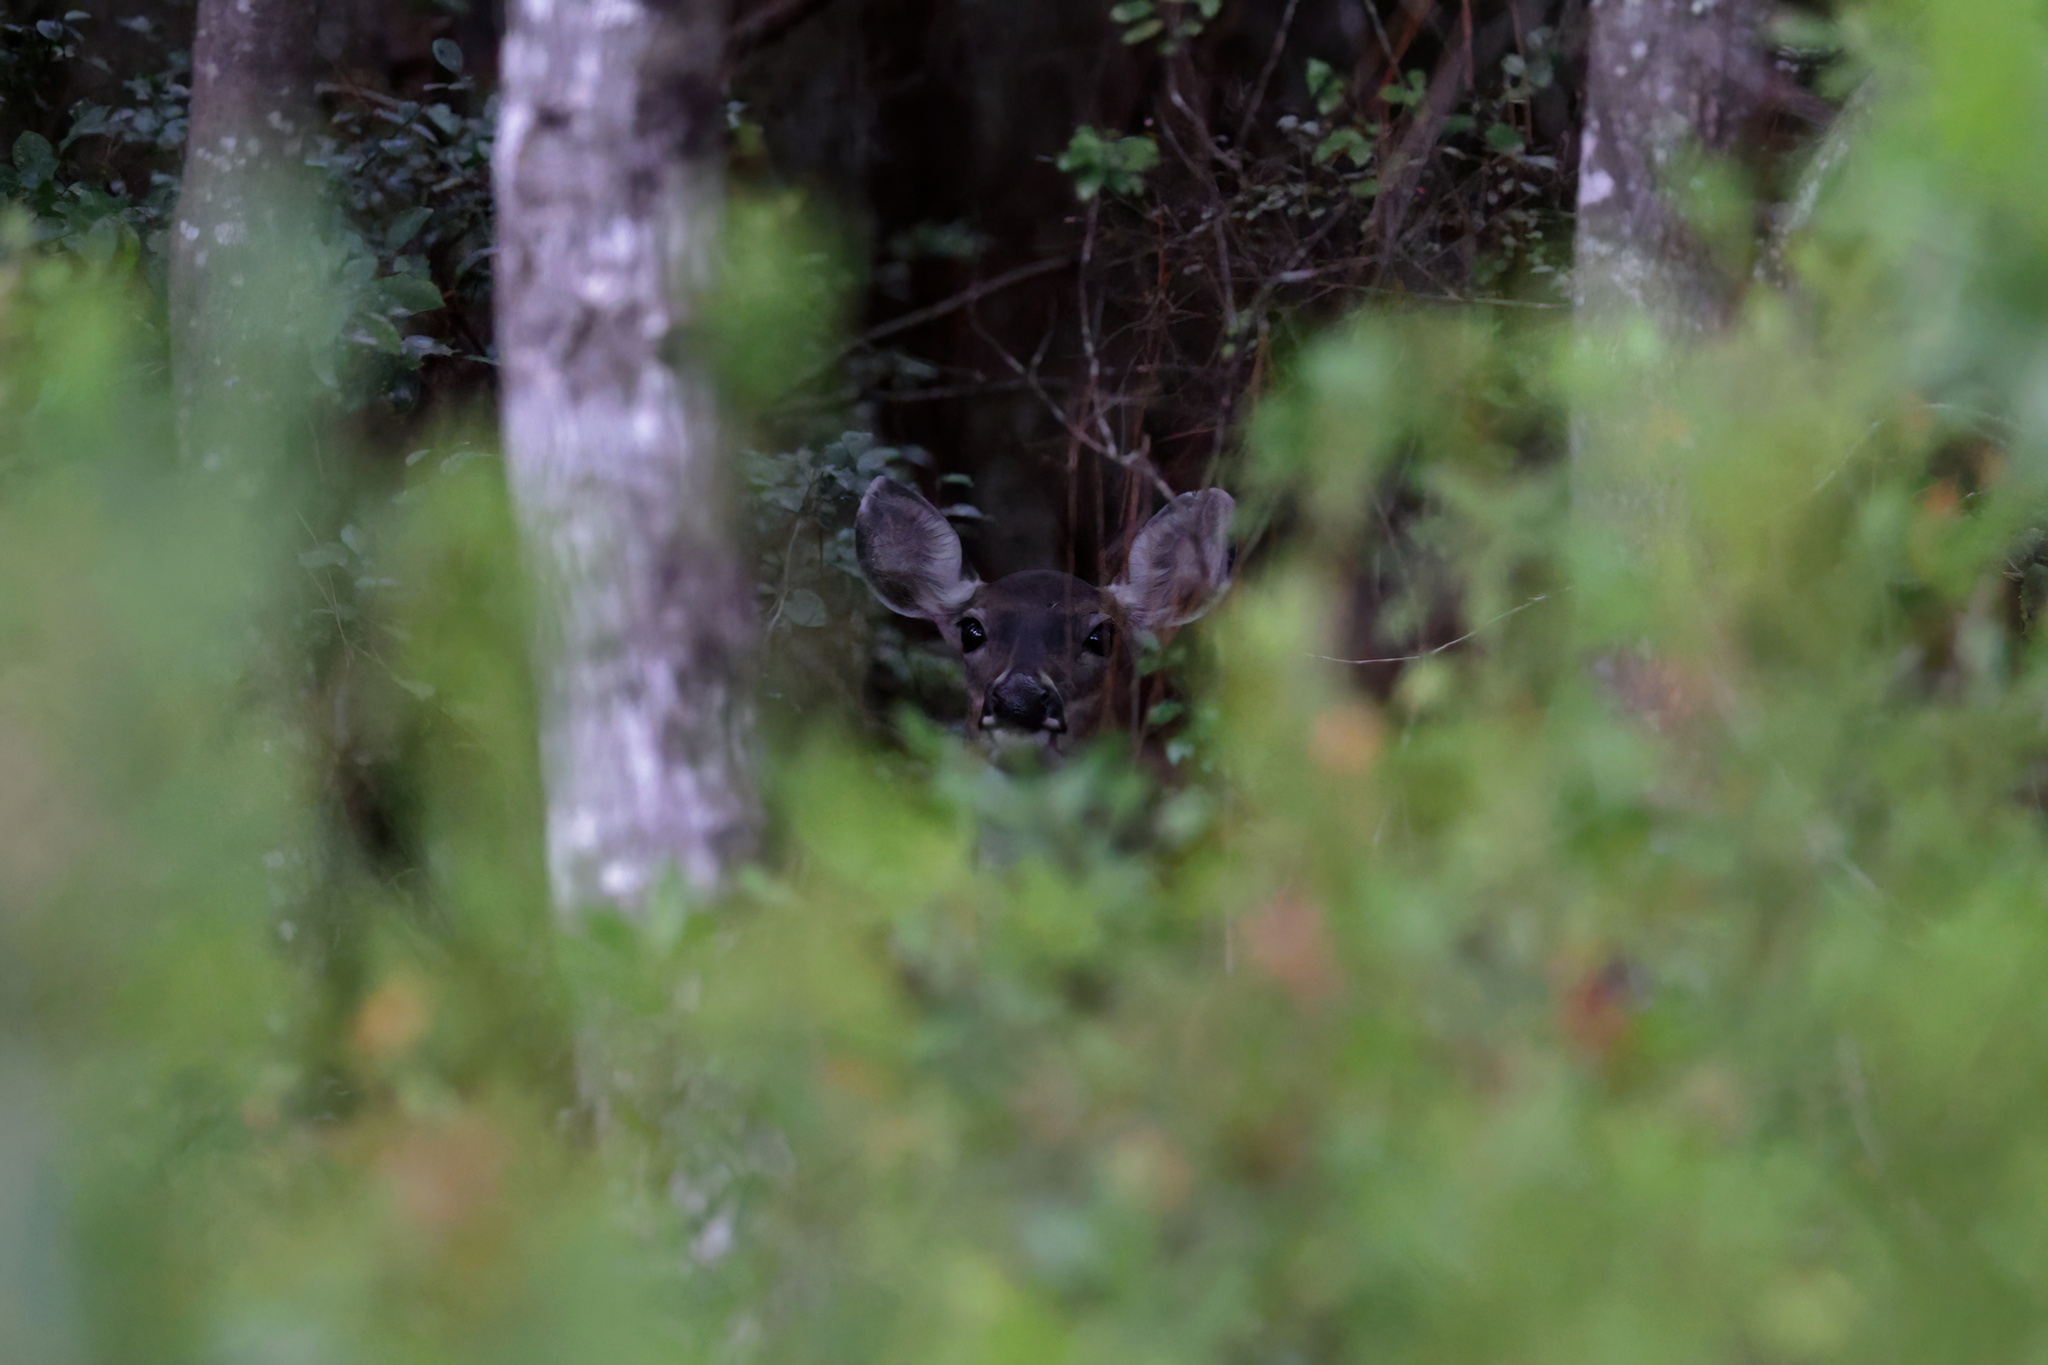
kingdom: Animalia
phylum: Chordata
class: Mammalia
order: Artiodactyla
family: Cervidae
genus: Odocoileus
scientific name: Odocoileus virginianus
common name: White-tailed deer
